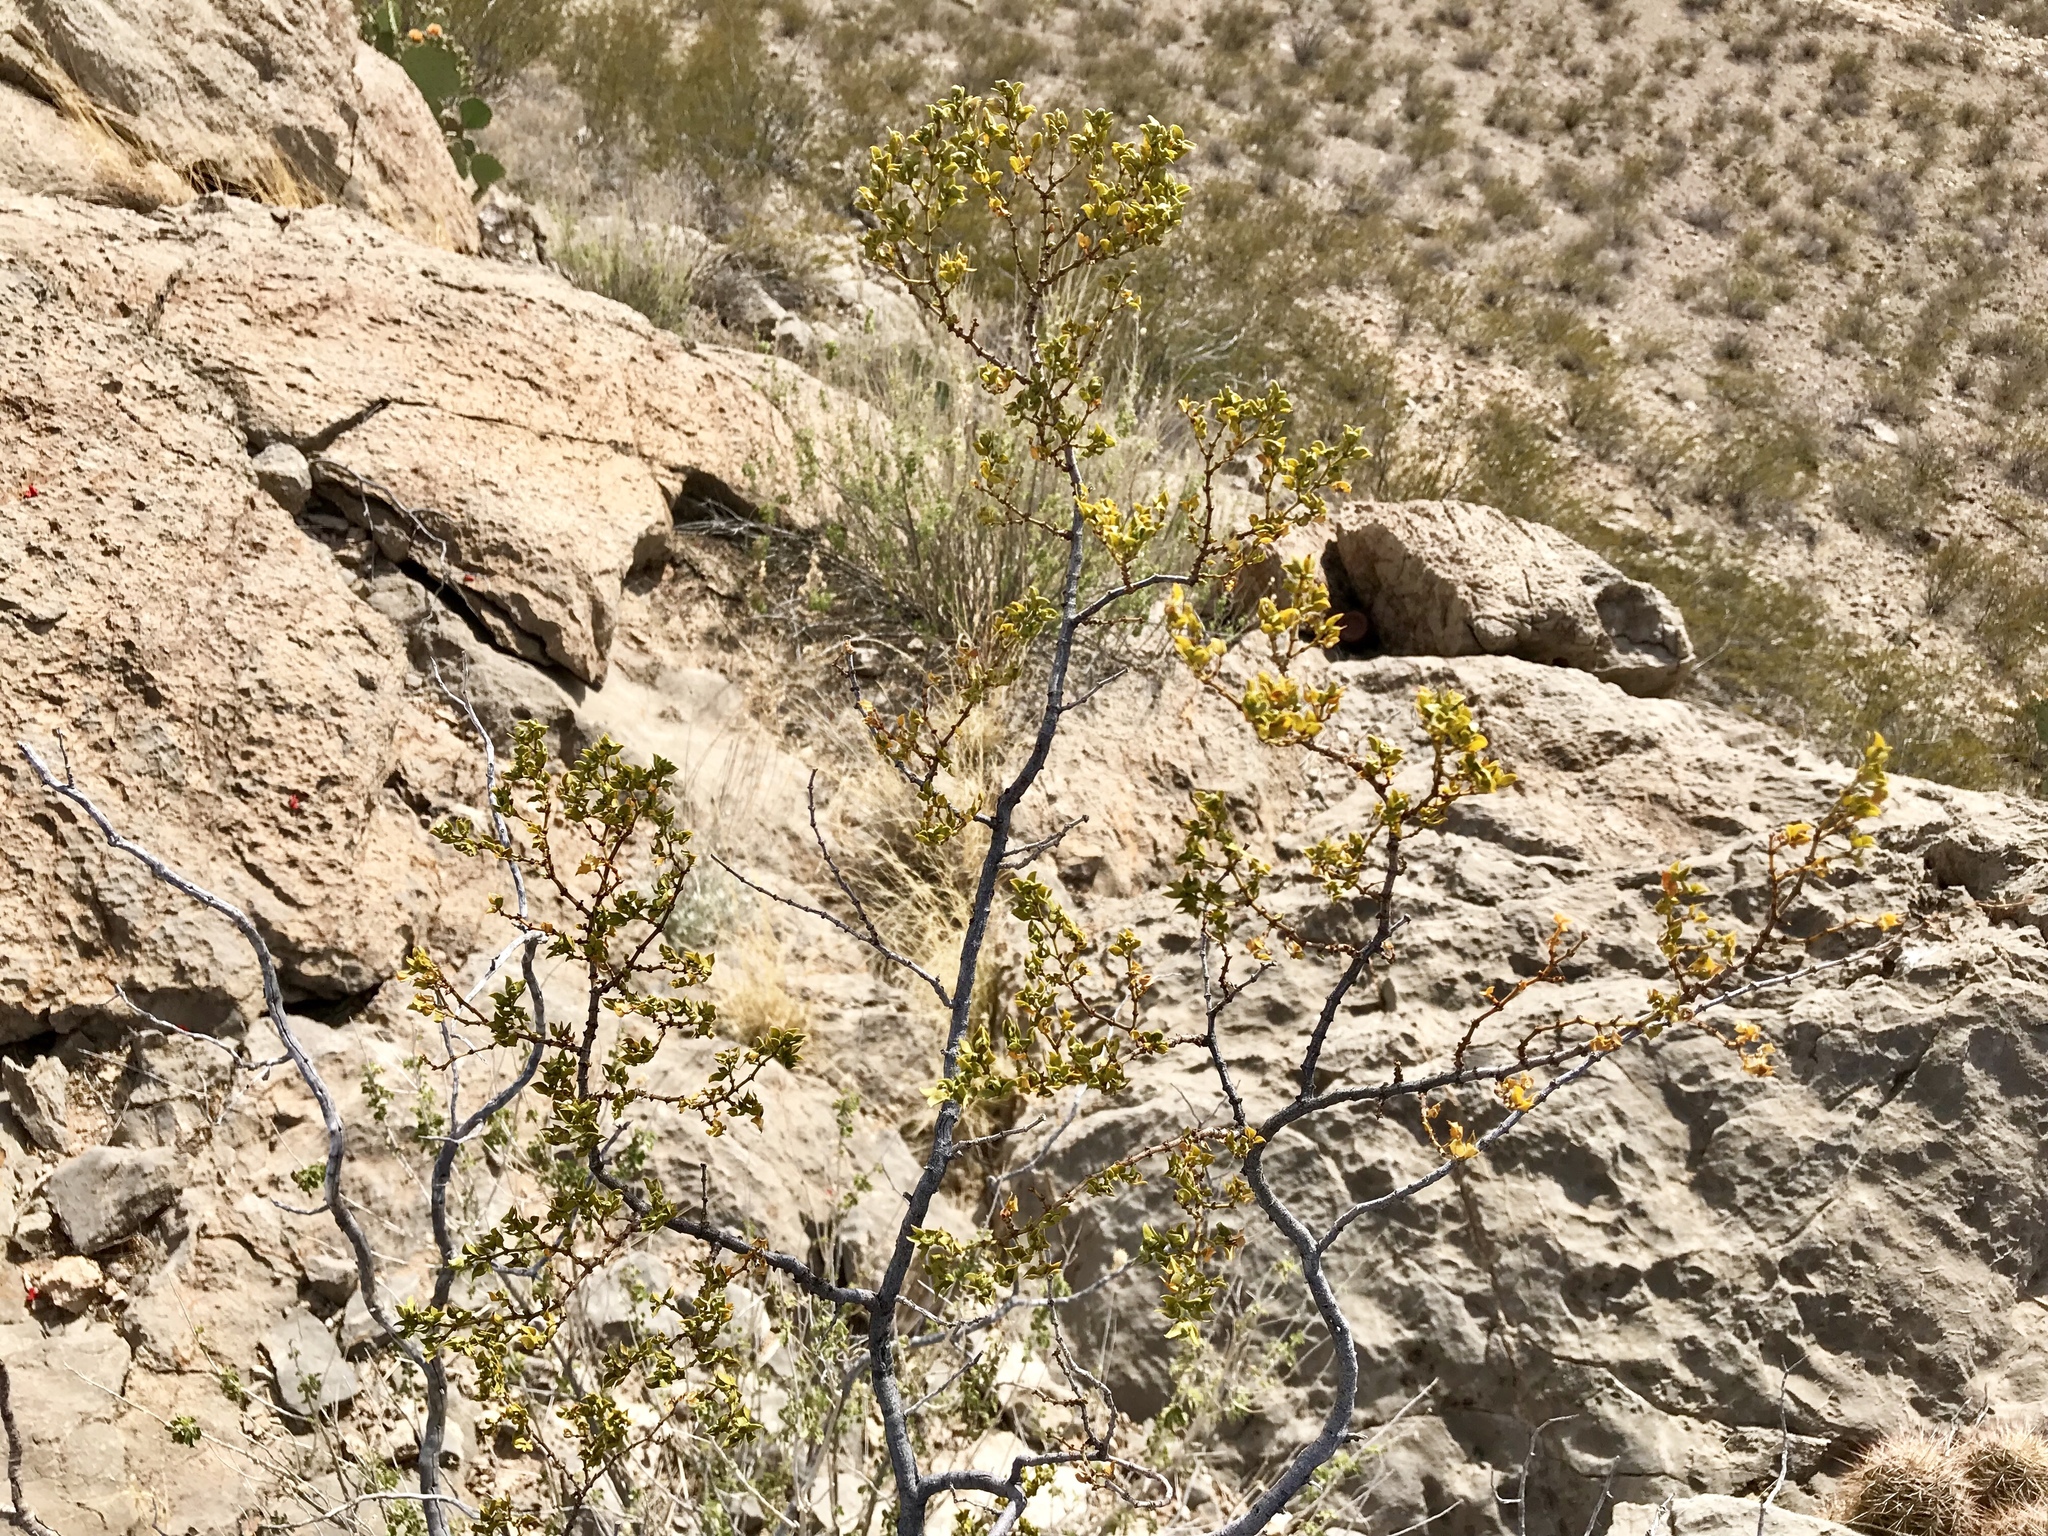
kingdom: Plantae
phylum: Tracheophyta
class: Magnoliopsida
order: Zygophyllales
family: Zygophyllaceae
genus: Larrea
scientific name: Larrea tridentata
